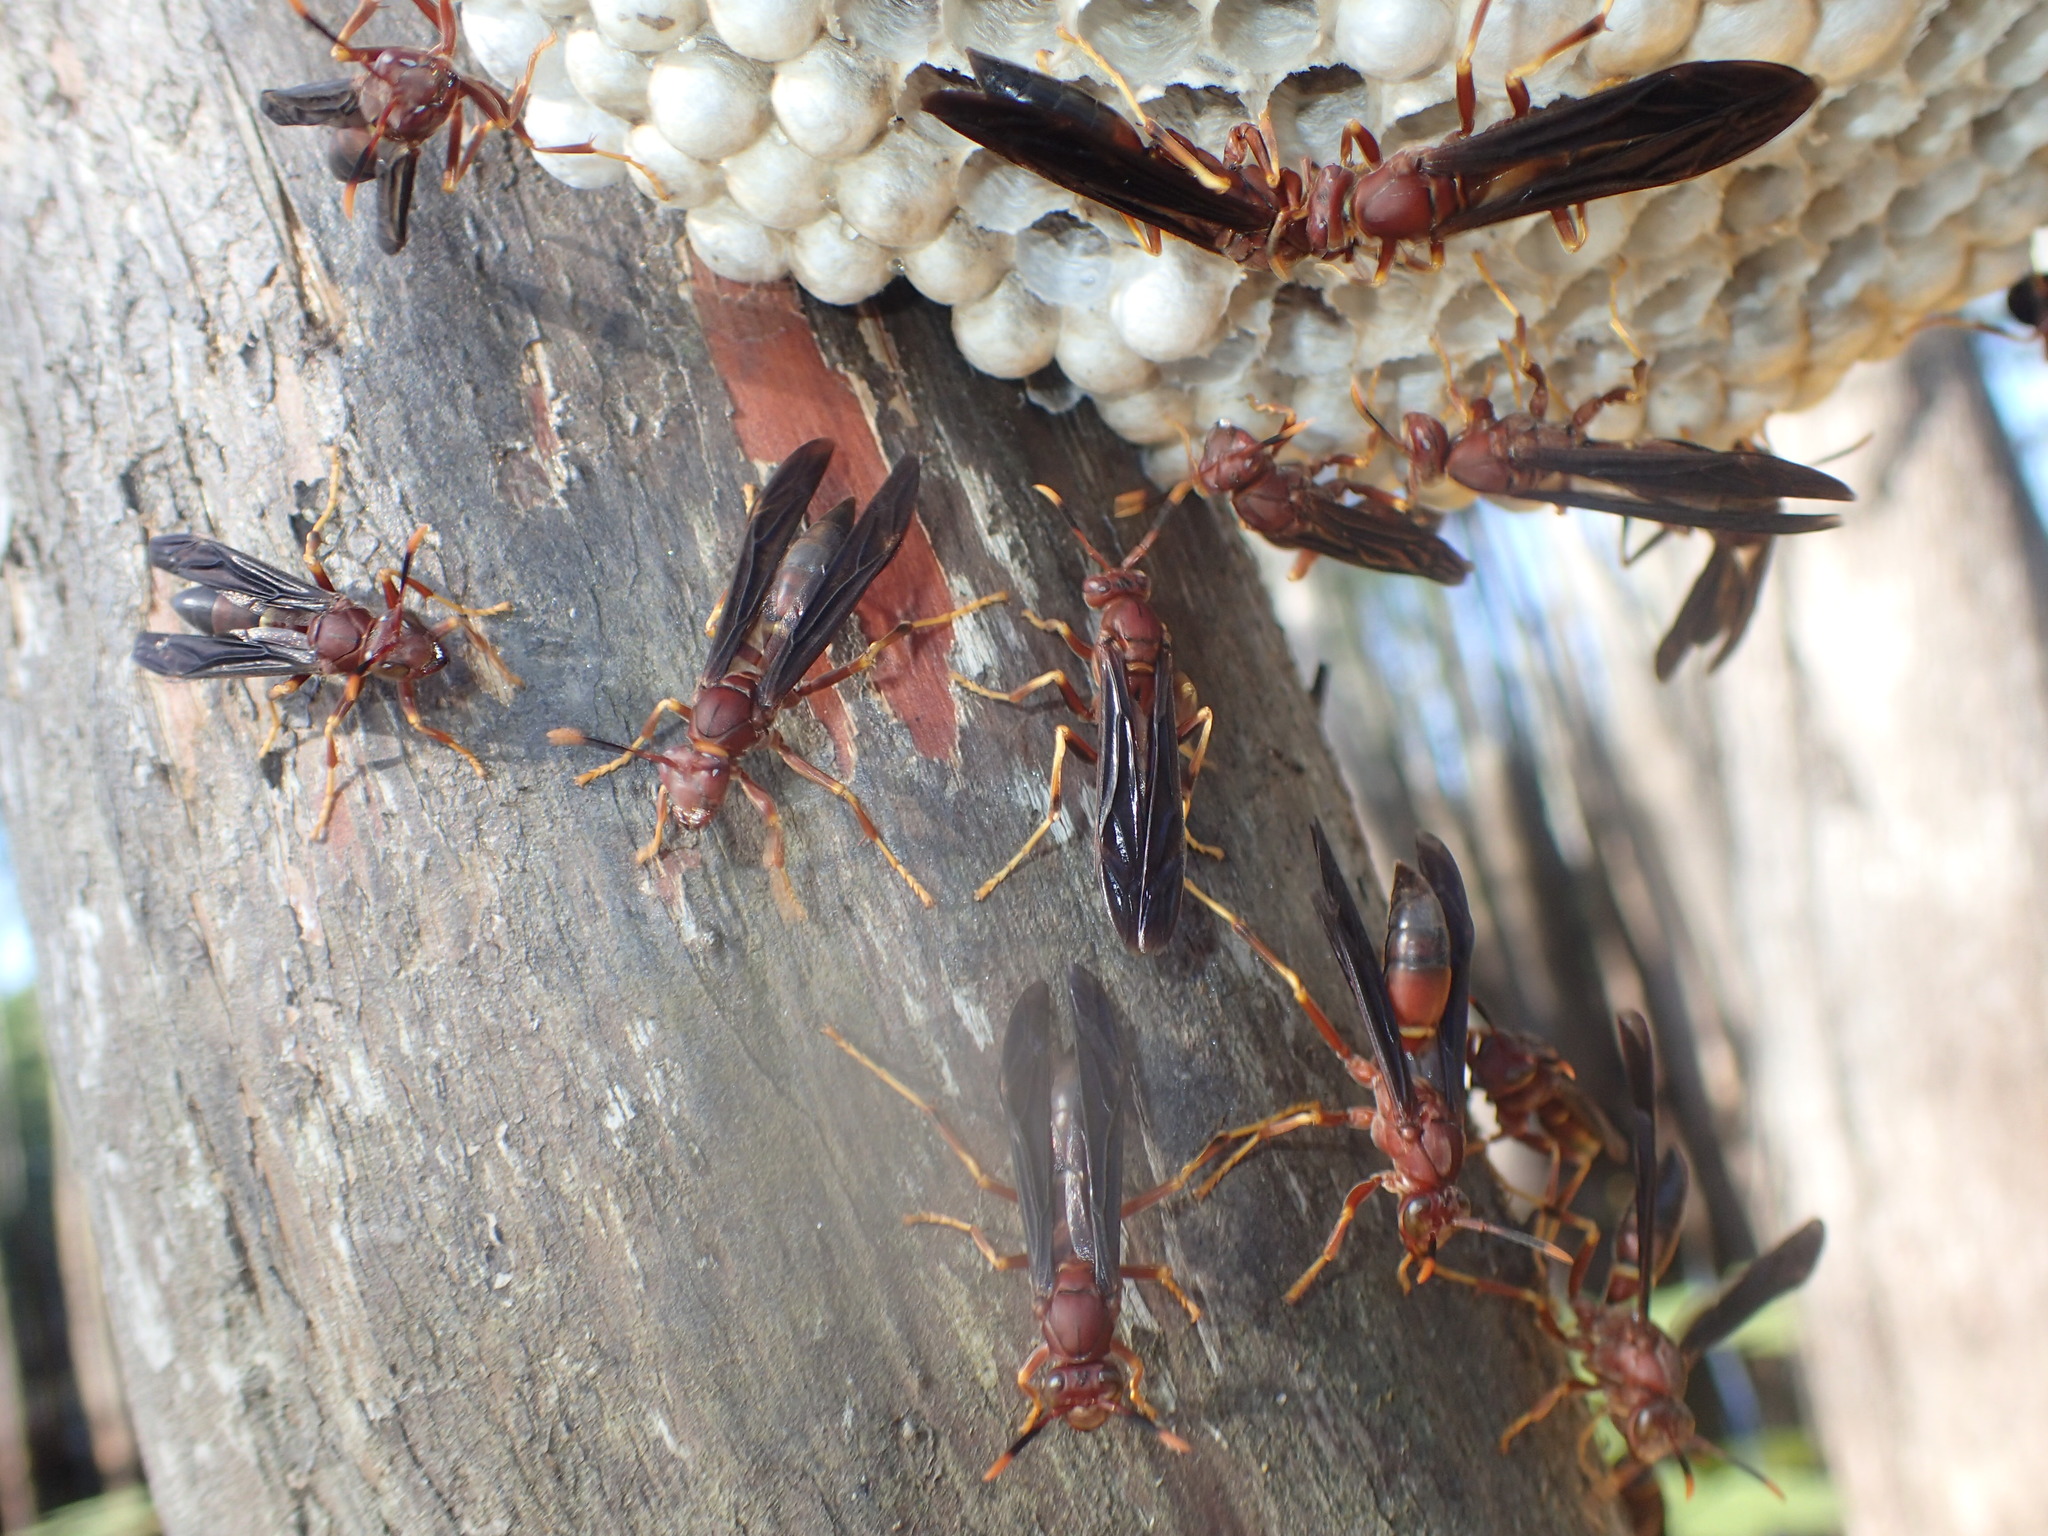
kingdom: Animalia
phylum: Arthropoda
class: Insecta
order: Hymenoptera
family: Eumenidae
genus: Polistes
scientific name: Polistes annularis
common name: Ringed paper wasp
